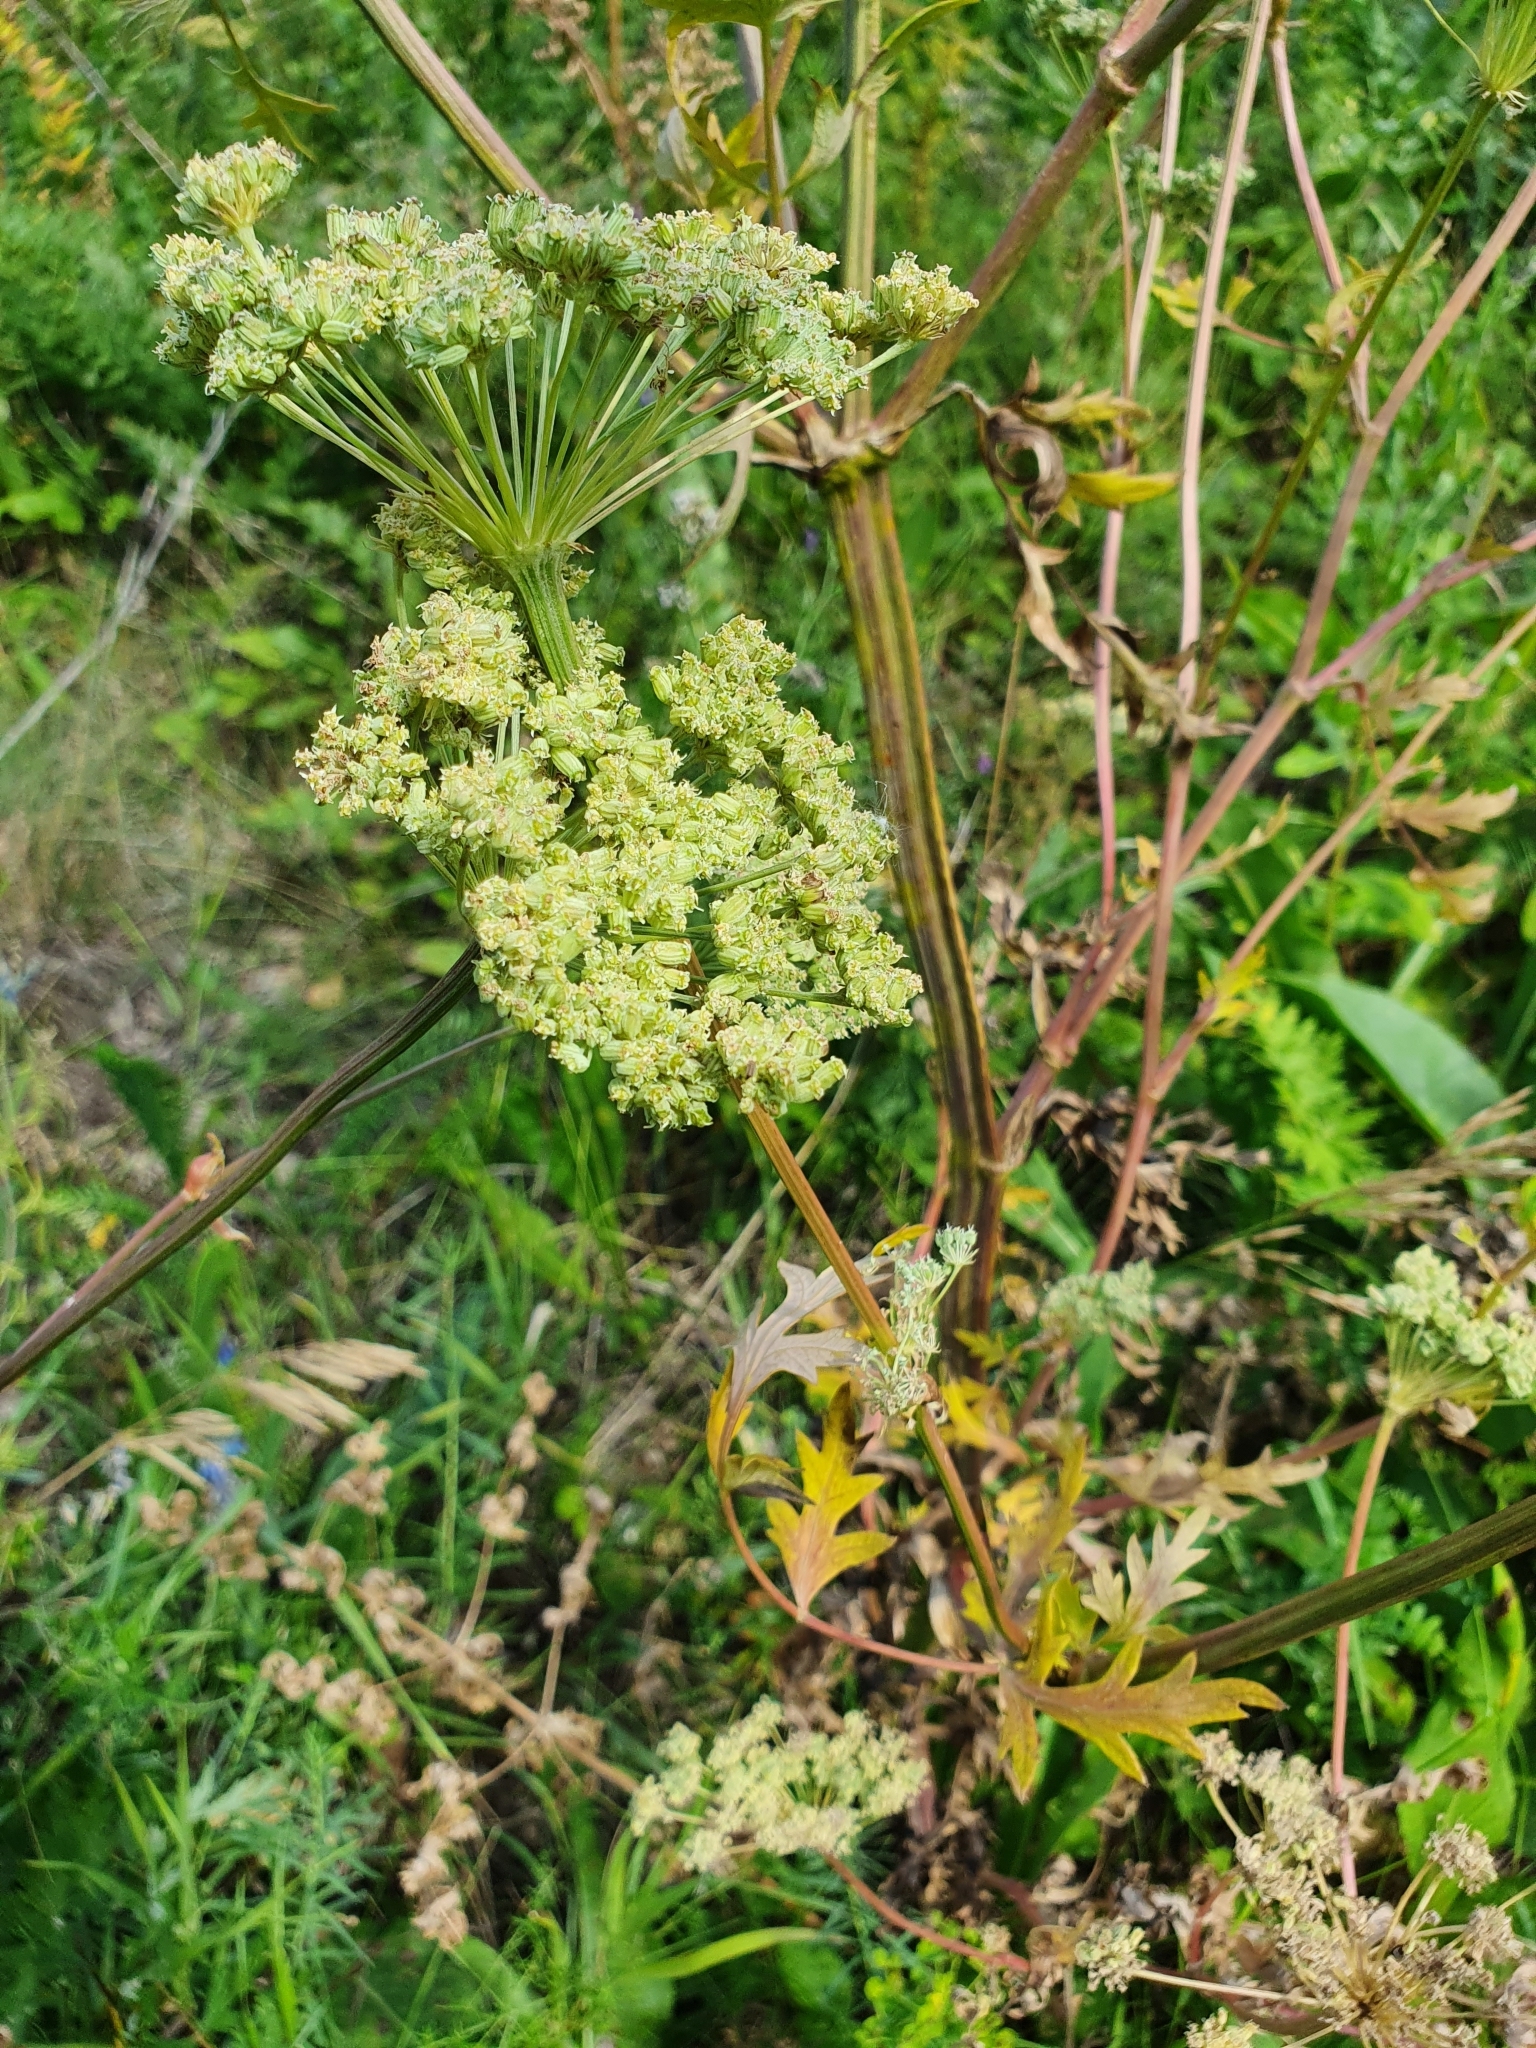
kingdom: Plantae
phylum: Tracheophyta
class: Magnoliopsida
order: Apiales
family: Apiaceae
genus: Seseli
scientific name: Seseli libanotis
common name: Mooncarrot
